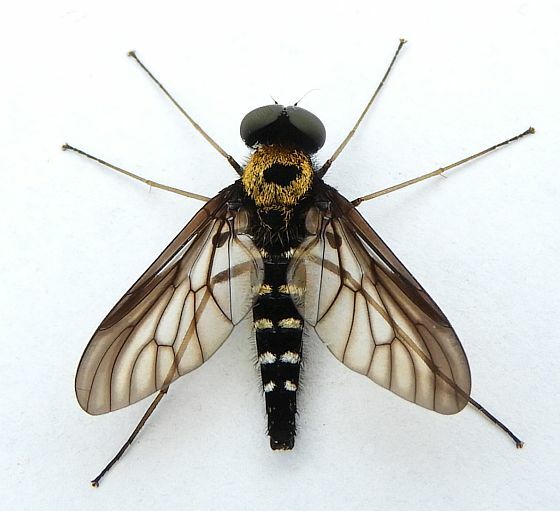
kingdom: Animalia
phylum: Arthropoda
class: Insecta
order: Diptera
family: Rhagionidae
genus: Chrysopilus
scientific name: Chrysopilus thoracicus
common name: Golden-backed snipe fly
